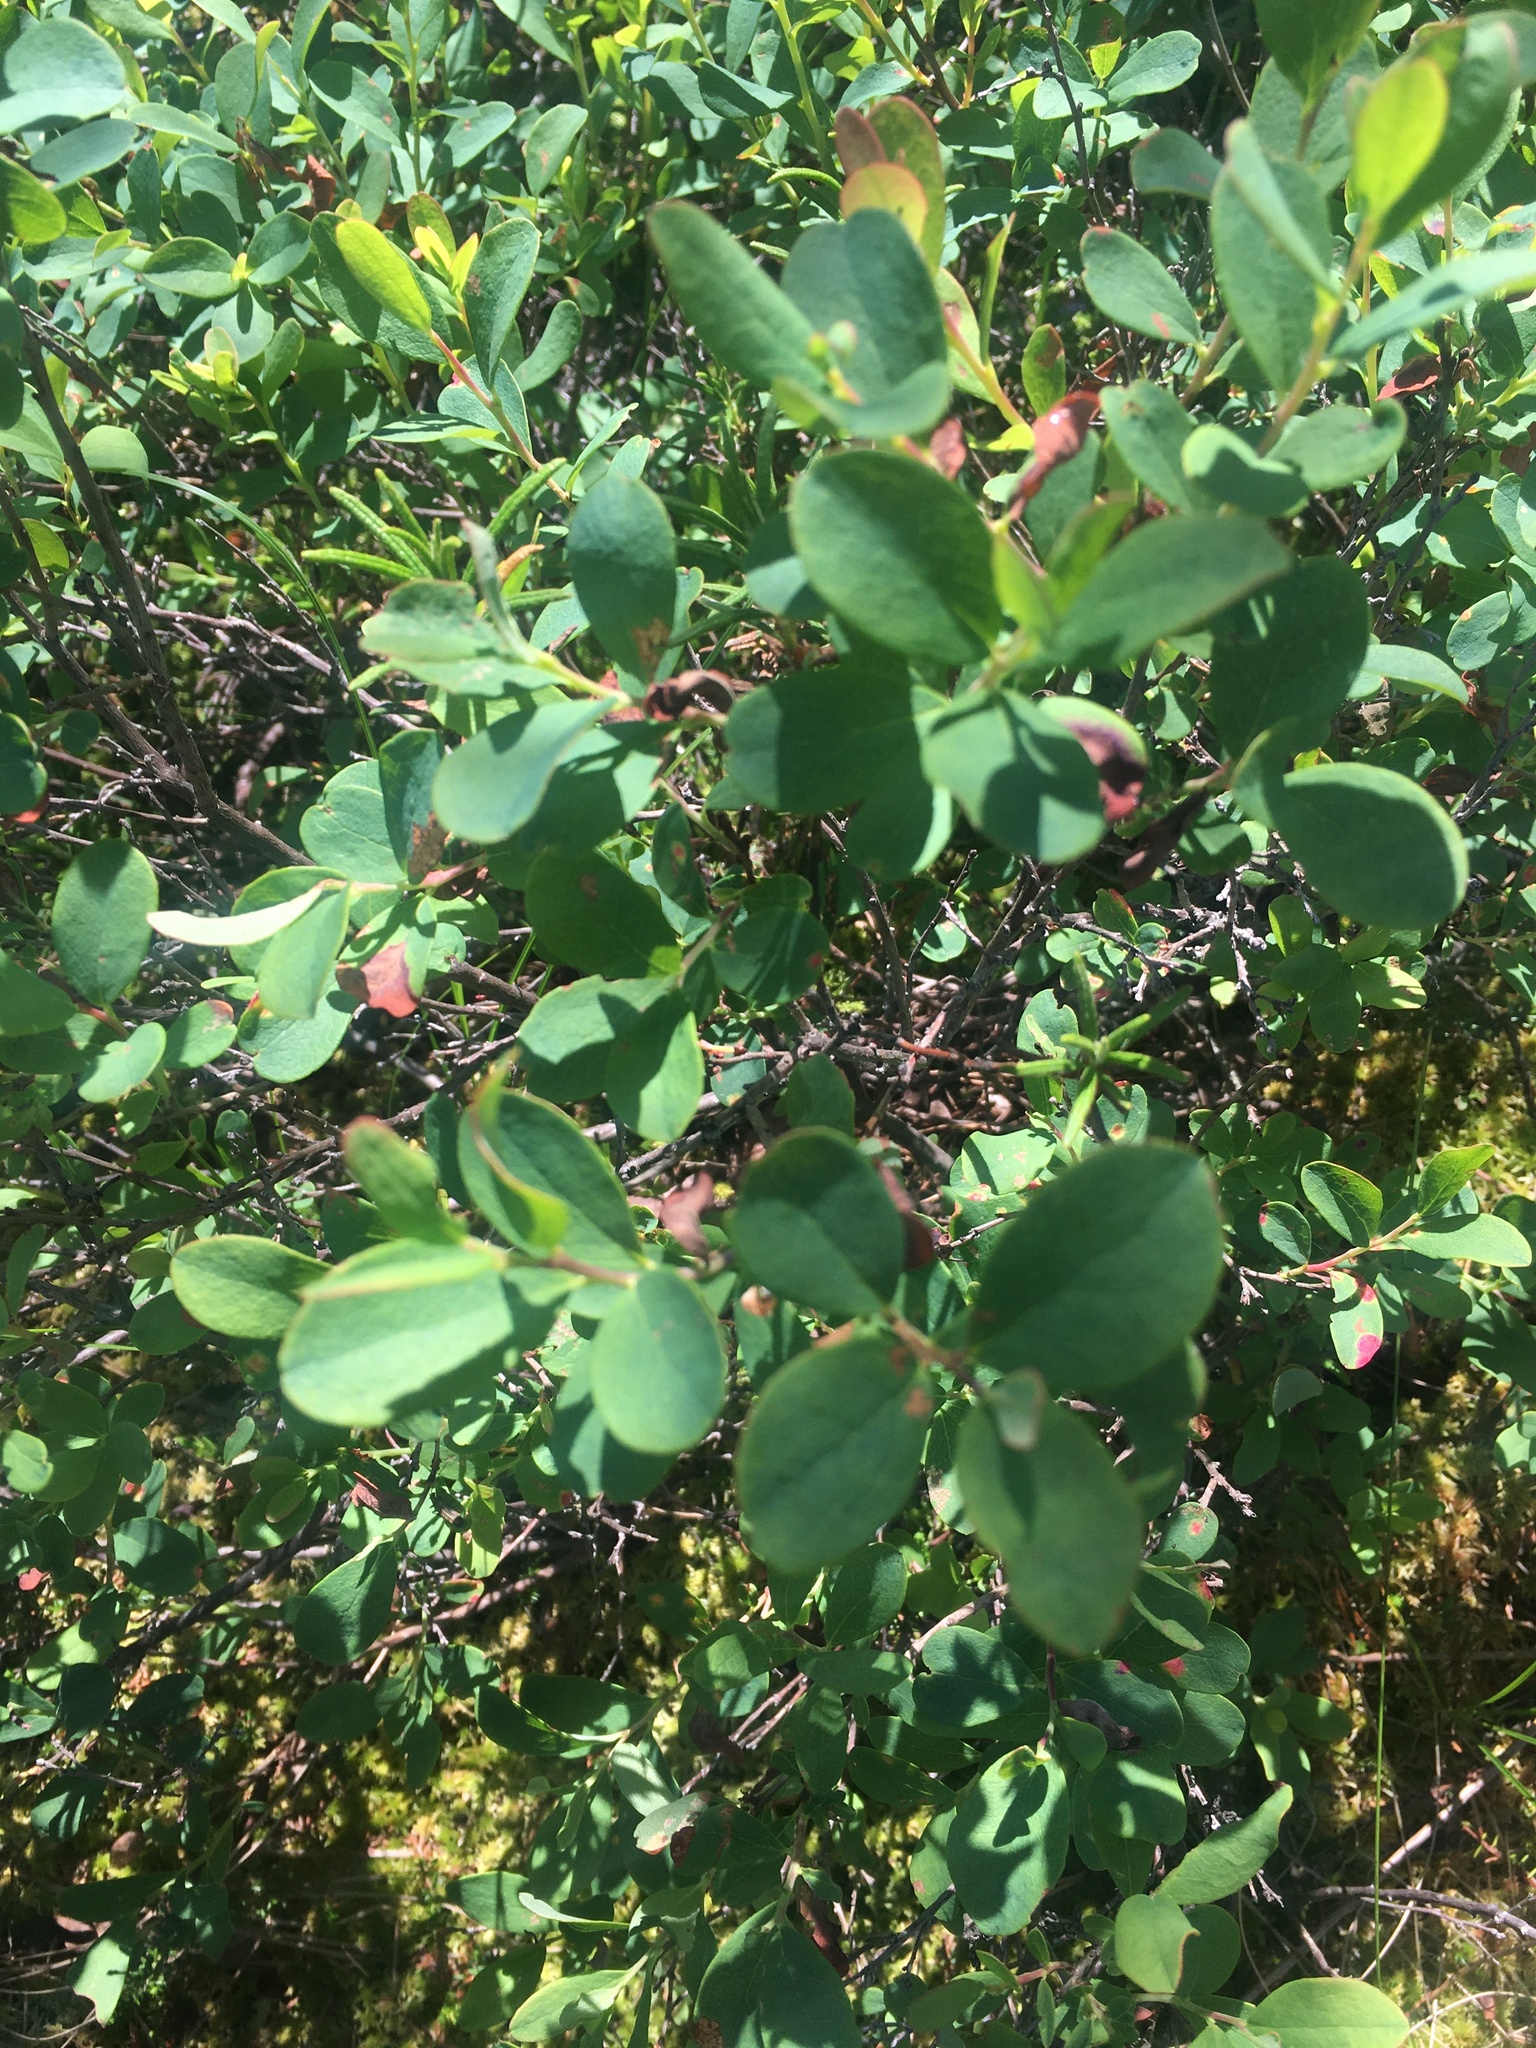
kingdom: Plantae
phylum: Tracheophyta
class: Magnoliopsida
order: Ericales
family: Ericaceae
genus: Vaccinium
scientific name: Vaccinium uliginosum
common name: Bog bilberry
